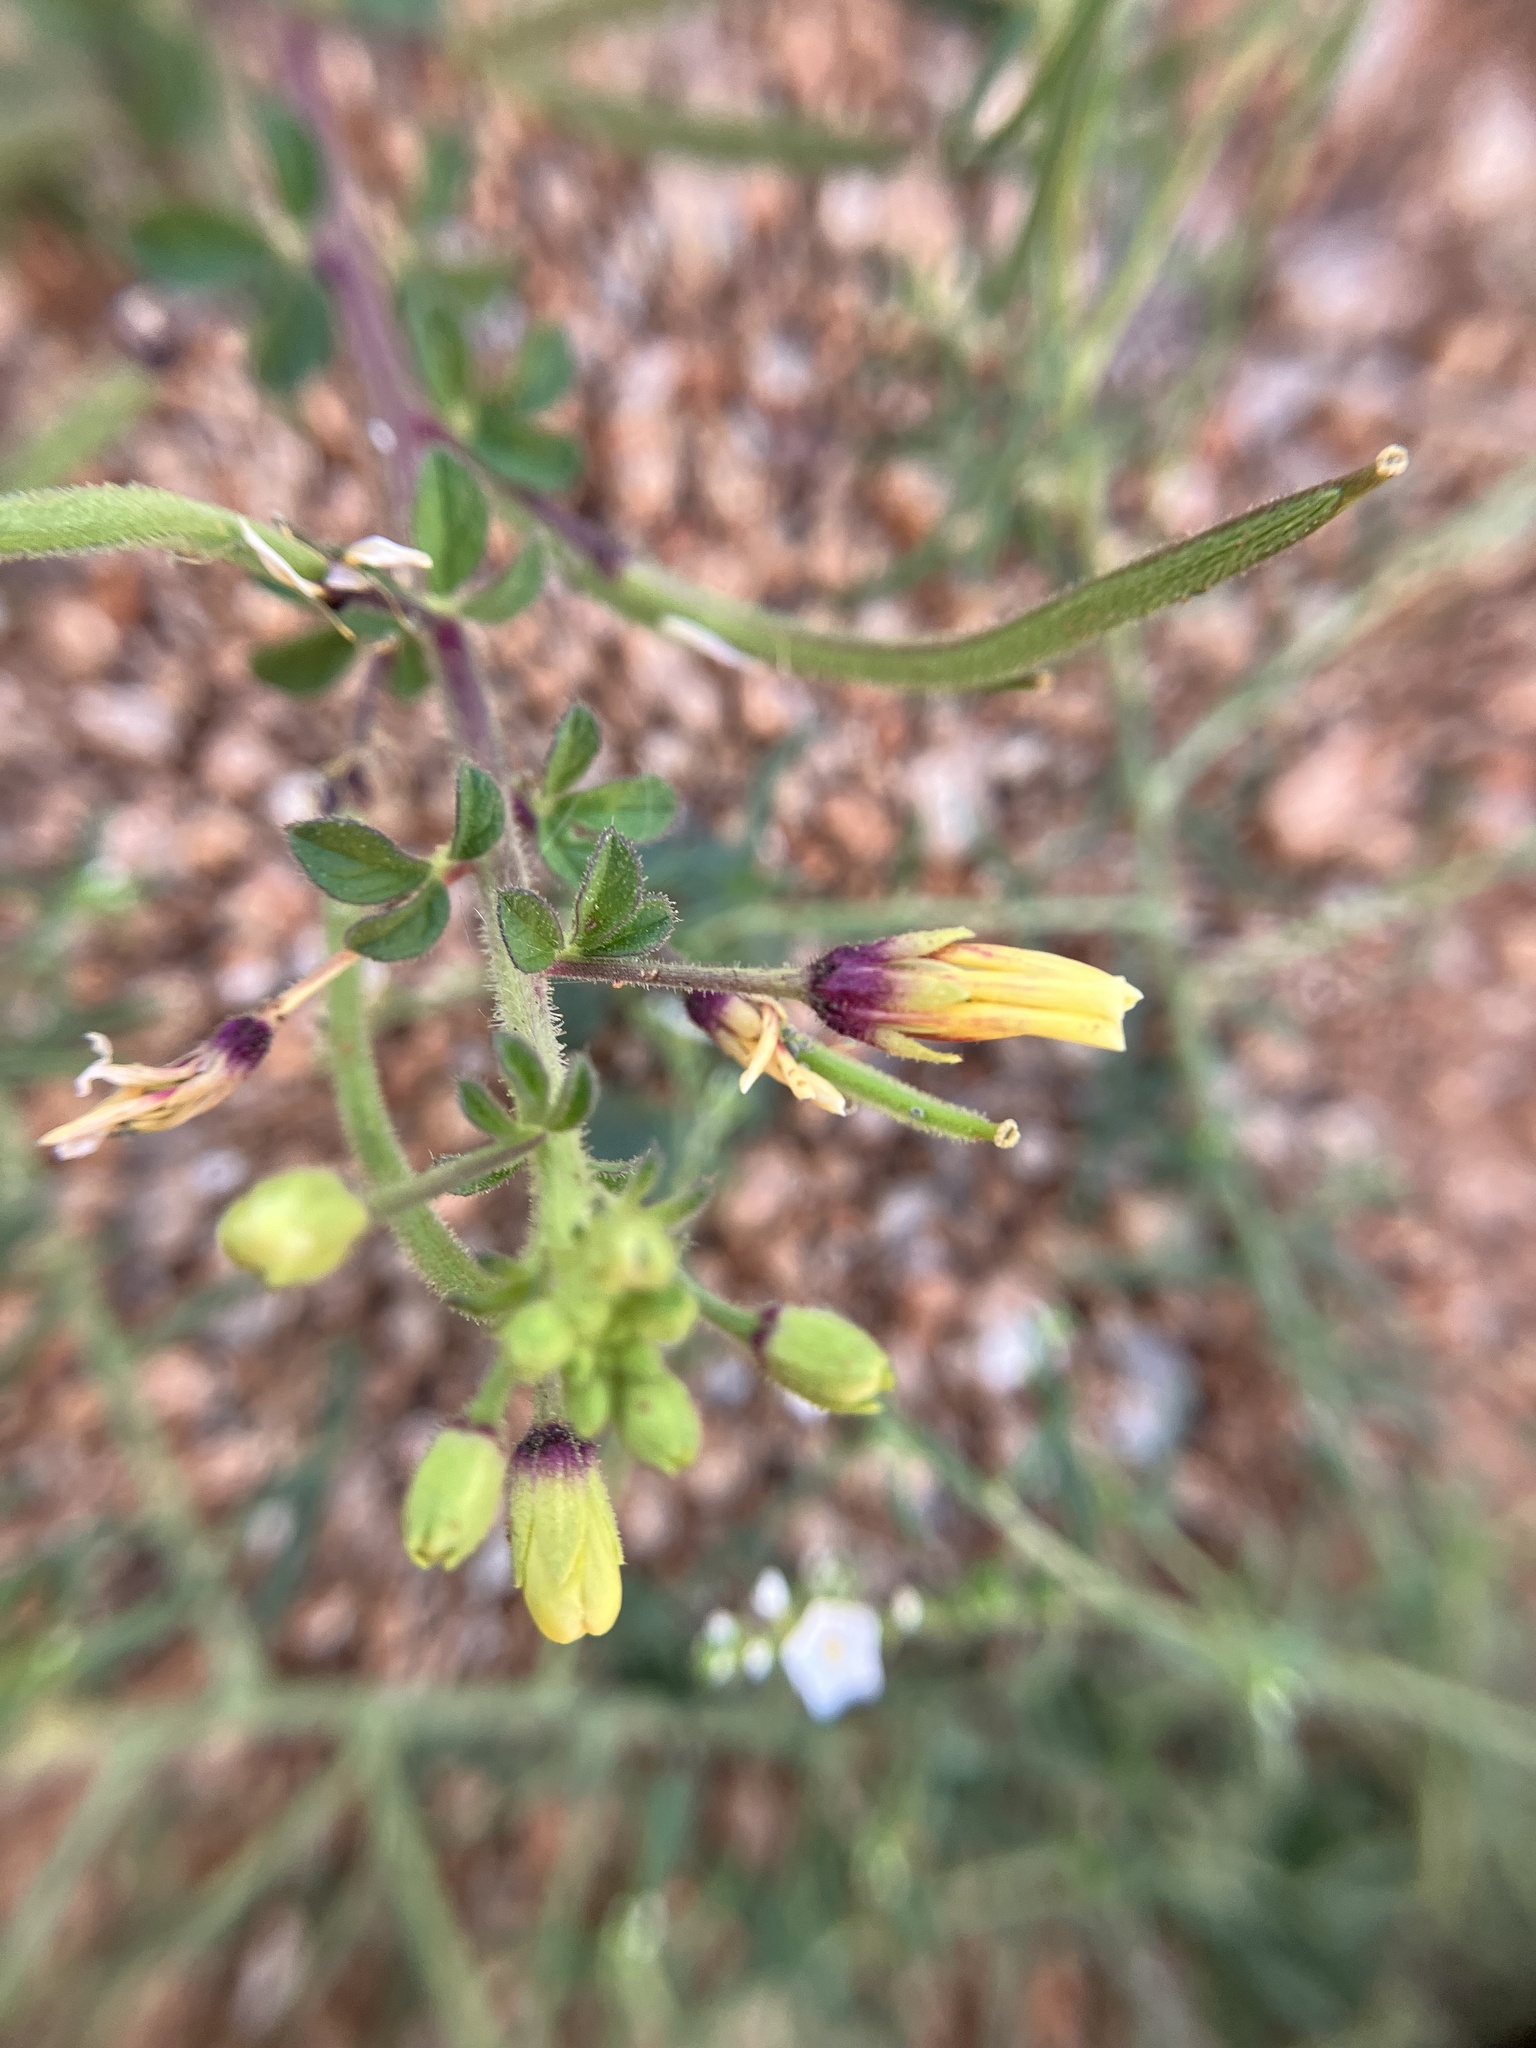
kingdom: Plantae
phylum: Tracheophyta
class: Magnoliopsida
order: Brassicales
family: Cleomaceae
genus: Arivela
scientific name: Arivela viscosa
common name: Asian spiderflower
